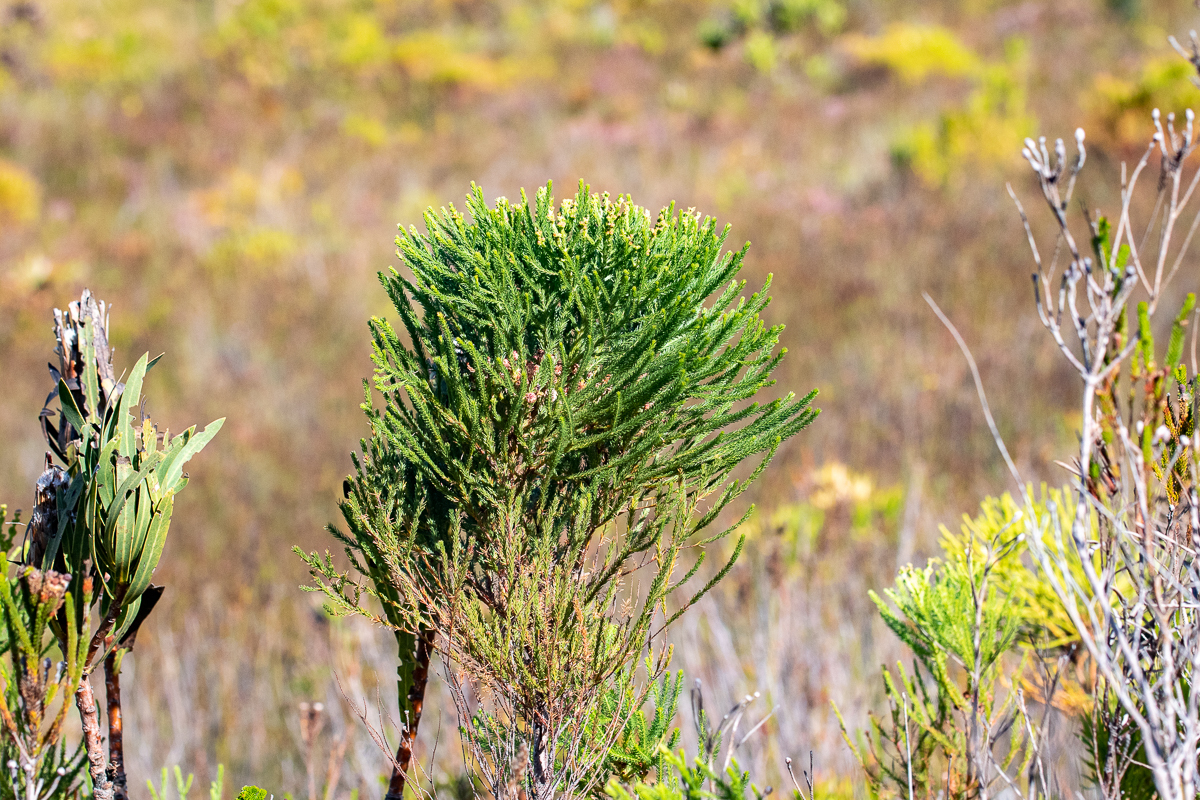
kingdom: Plantae
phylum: Tracheophyta
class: Magnoliopsida
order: Bruniales
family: Bruniaceae
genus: Berzelia
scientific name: Berzelia alopecurioides
